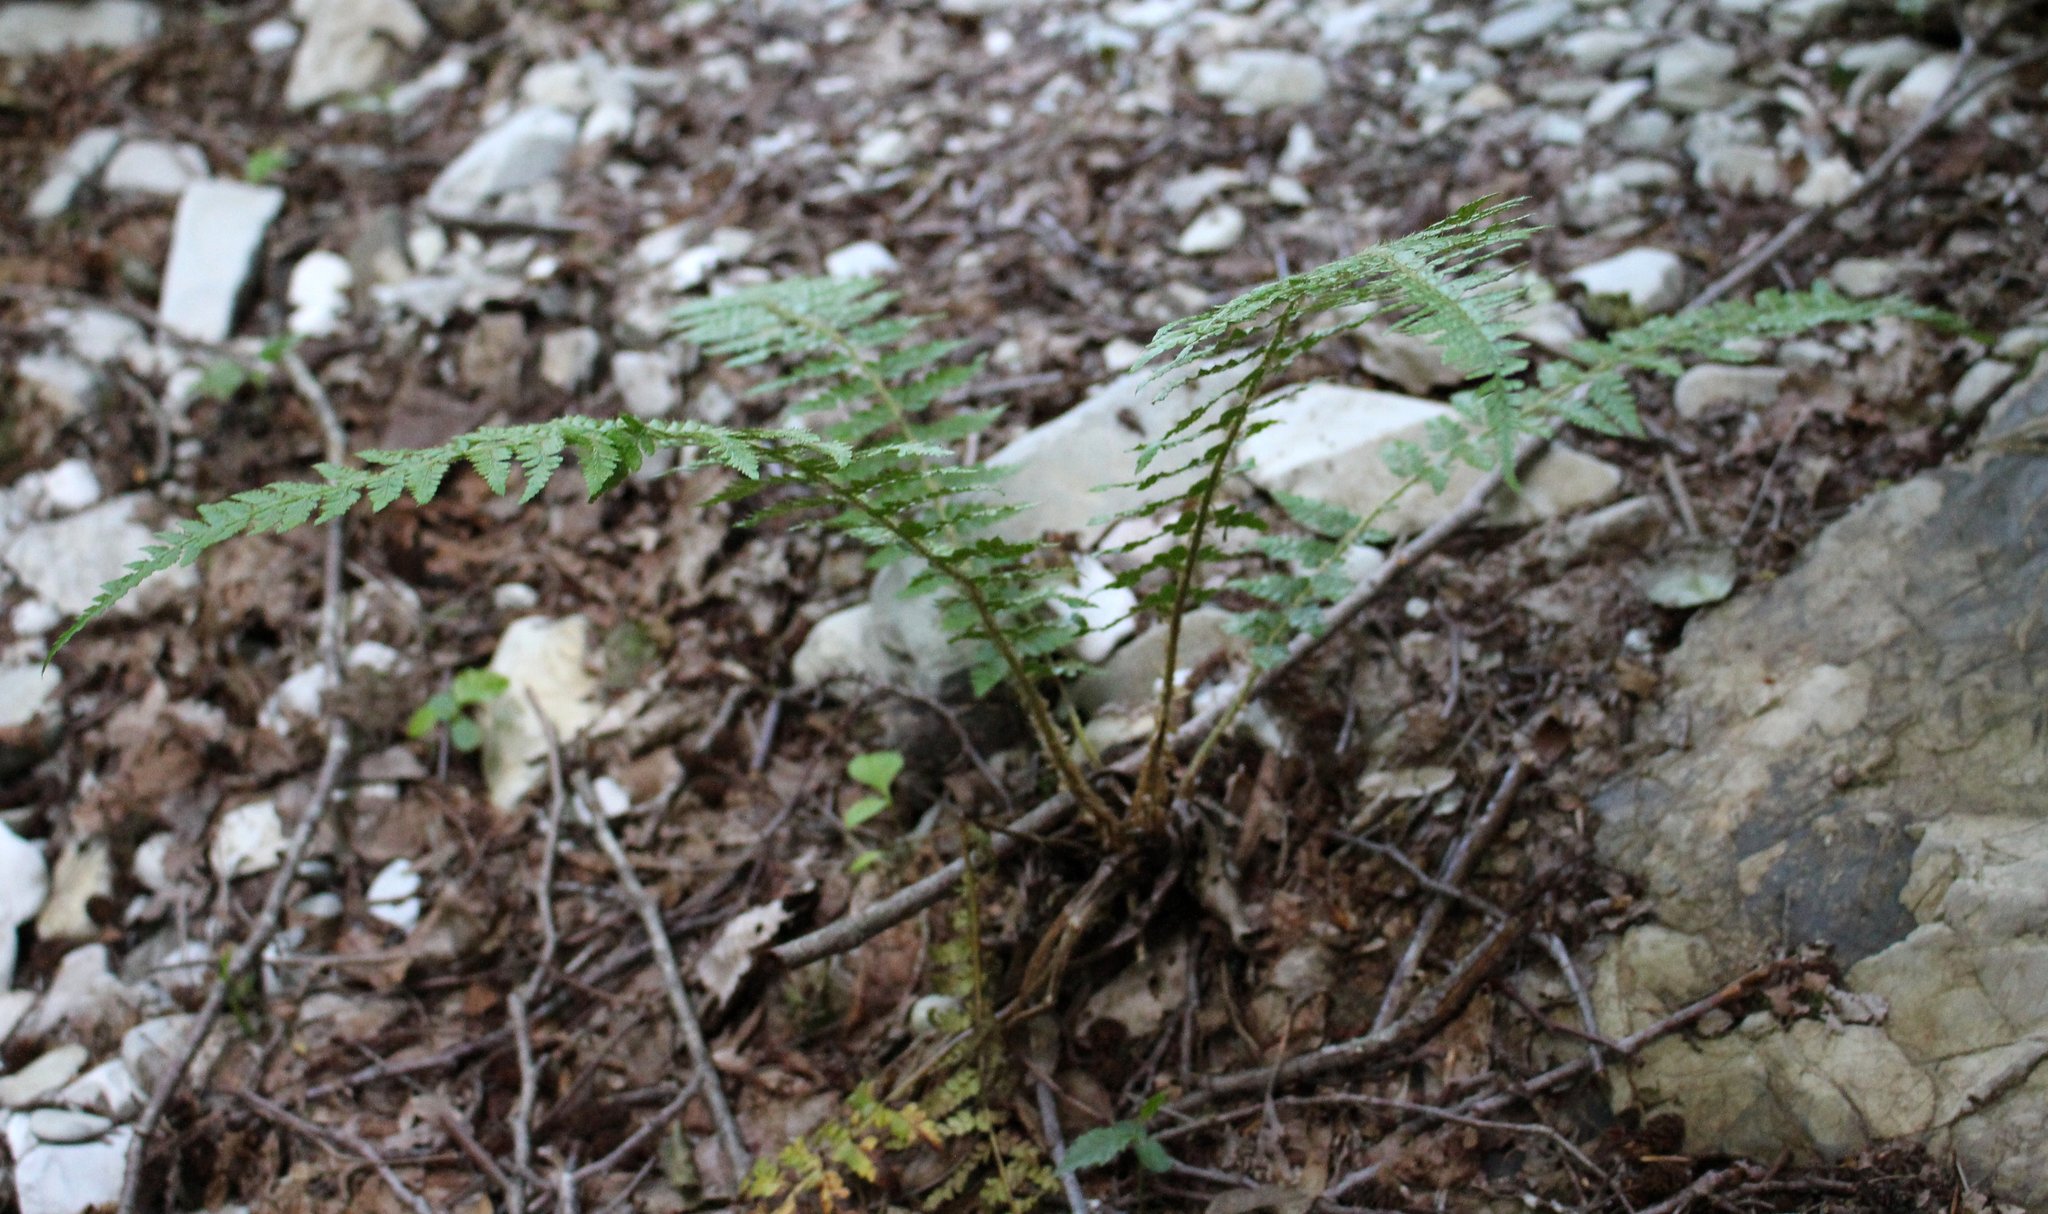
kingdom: Plantae
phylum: Tracheophyta
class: Polypodiopsida
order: Polypodiales
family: Dryopteridaceae
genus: Polystichum
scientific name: Polystichum braunii
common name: Braun's holly fern
